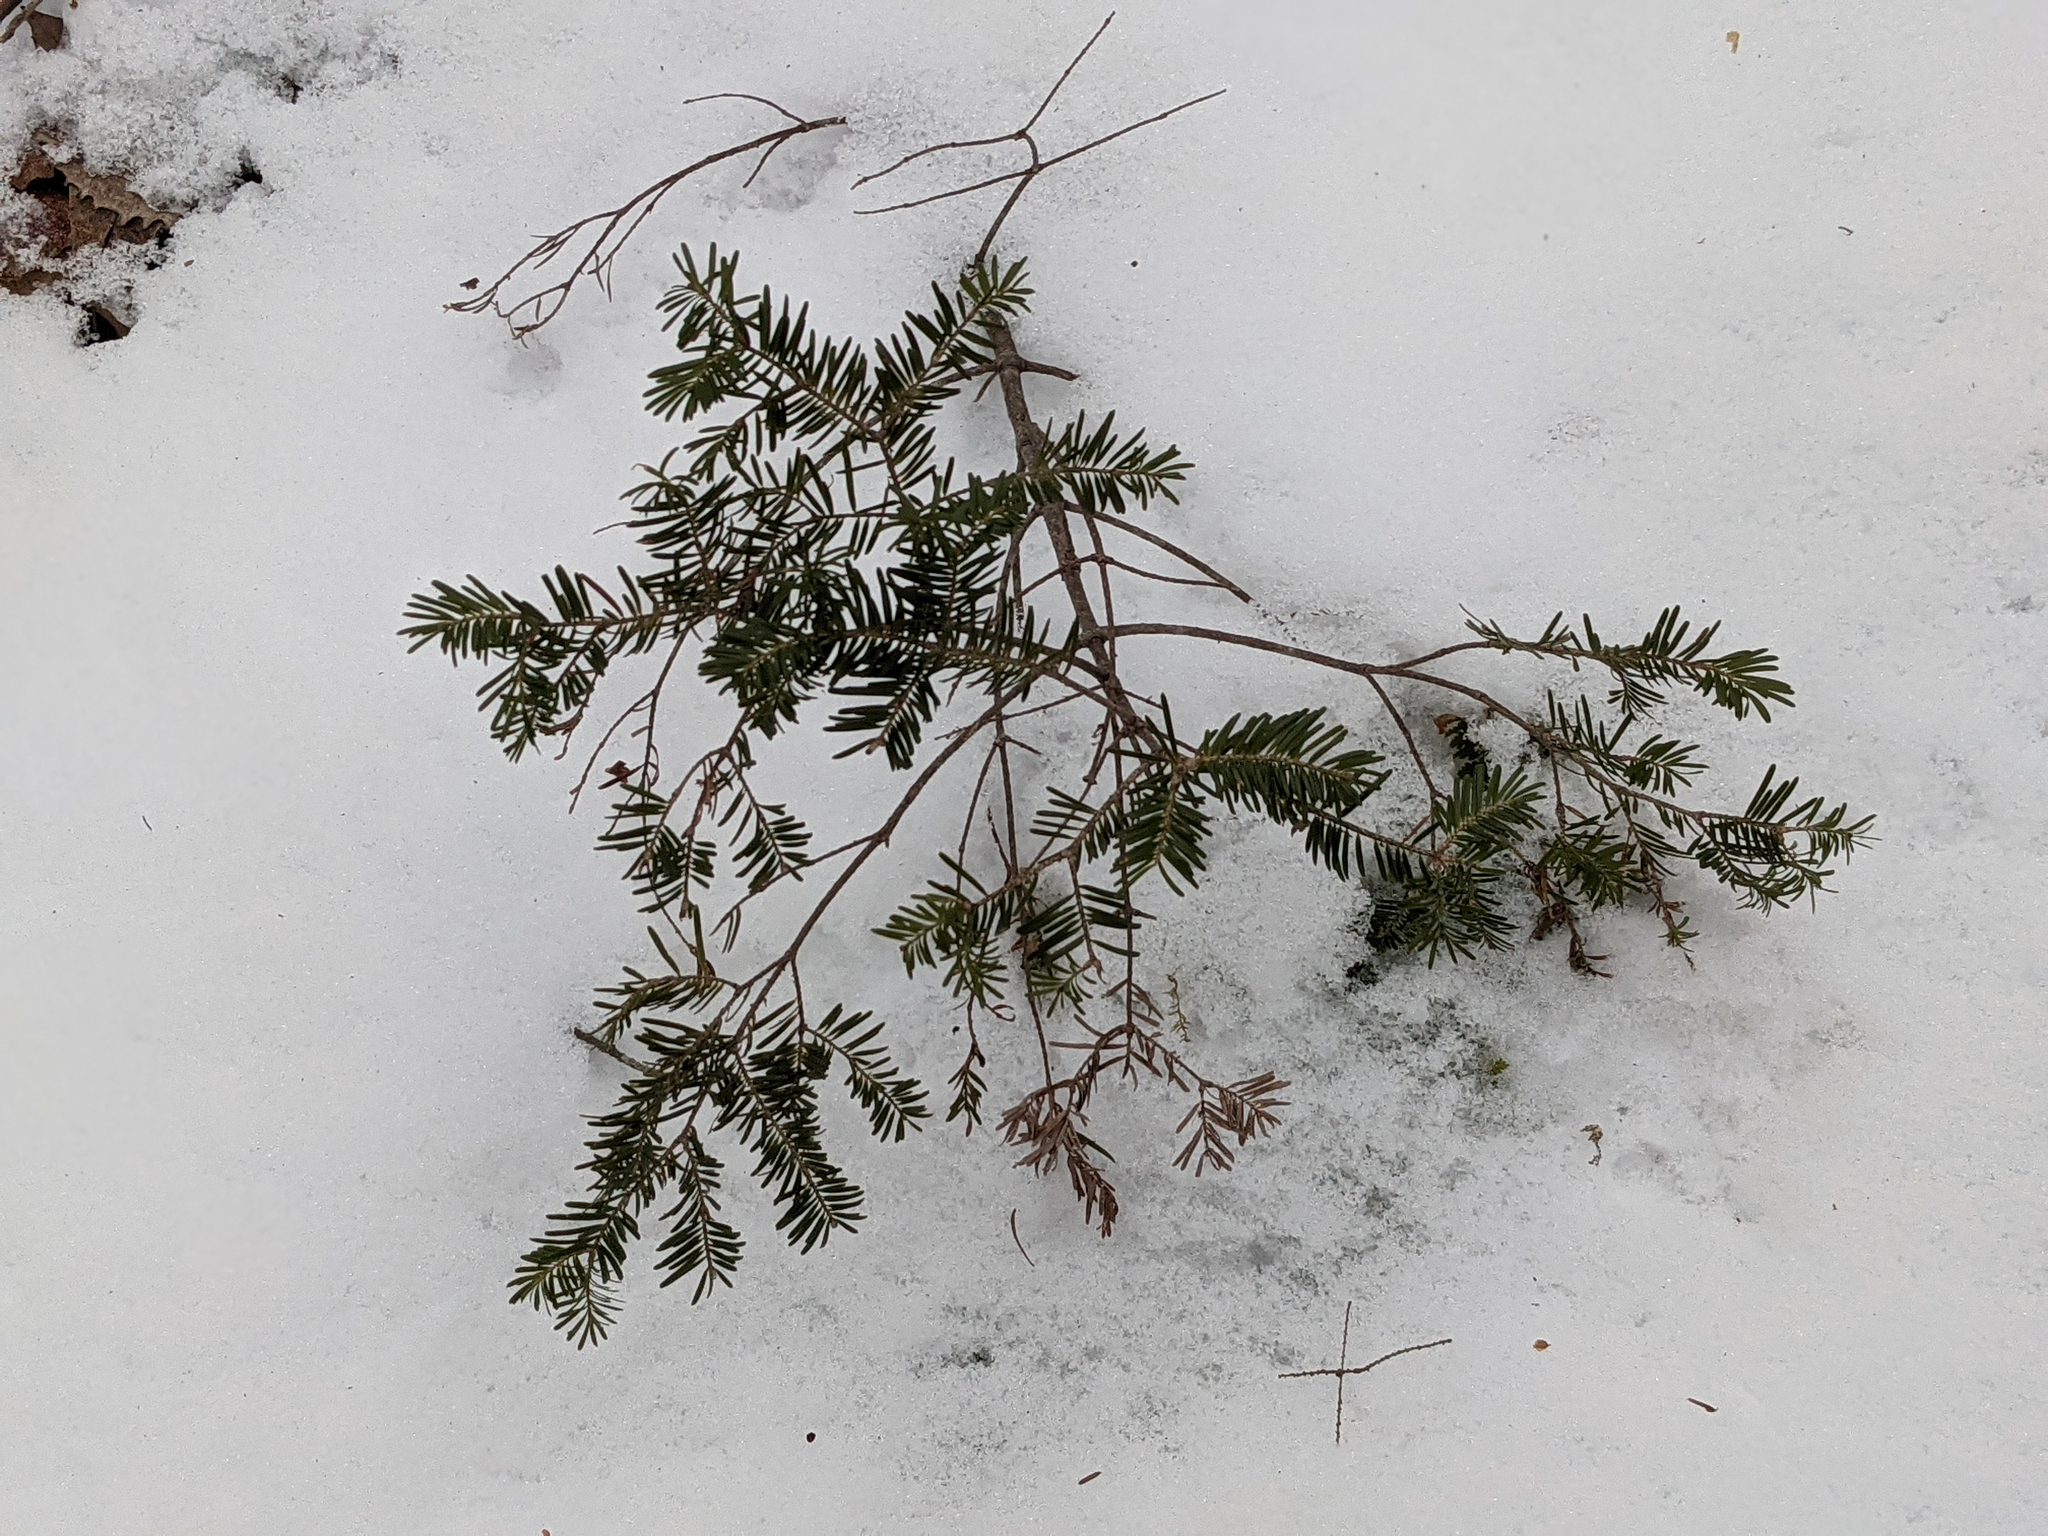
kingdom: Plantae
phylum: Tracheophyta
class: Pinopsida
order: Pinales
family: Pinaceae
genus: Tsuga
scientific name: Tsuga canadensis
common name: Eastern hemlock
